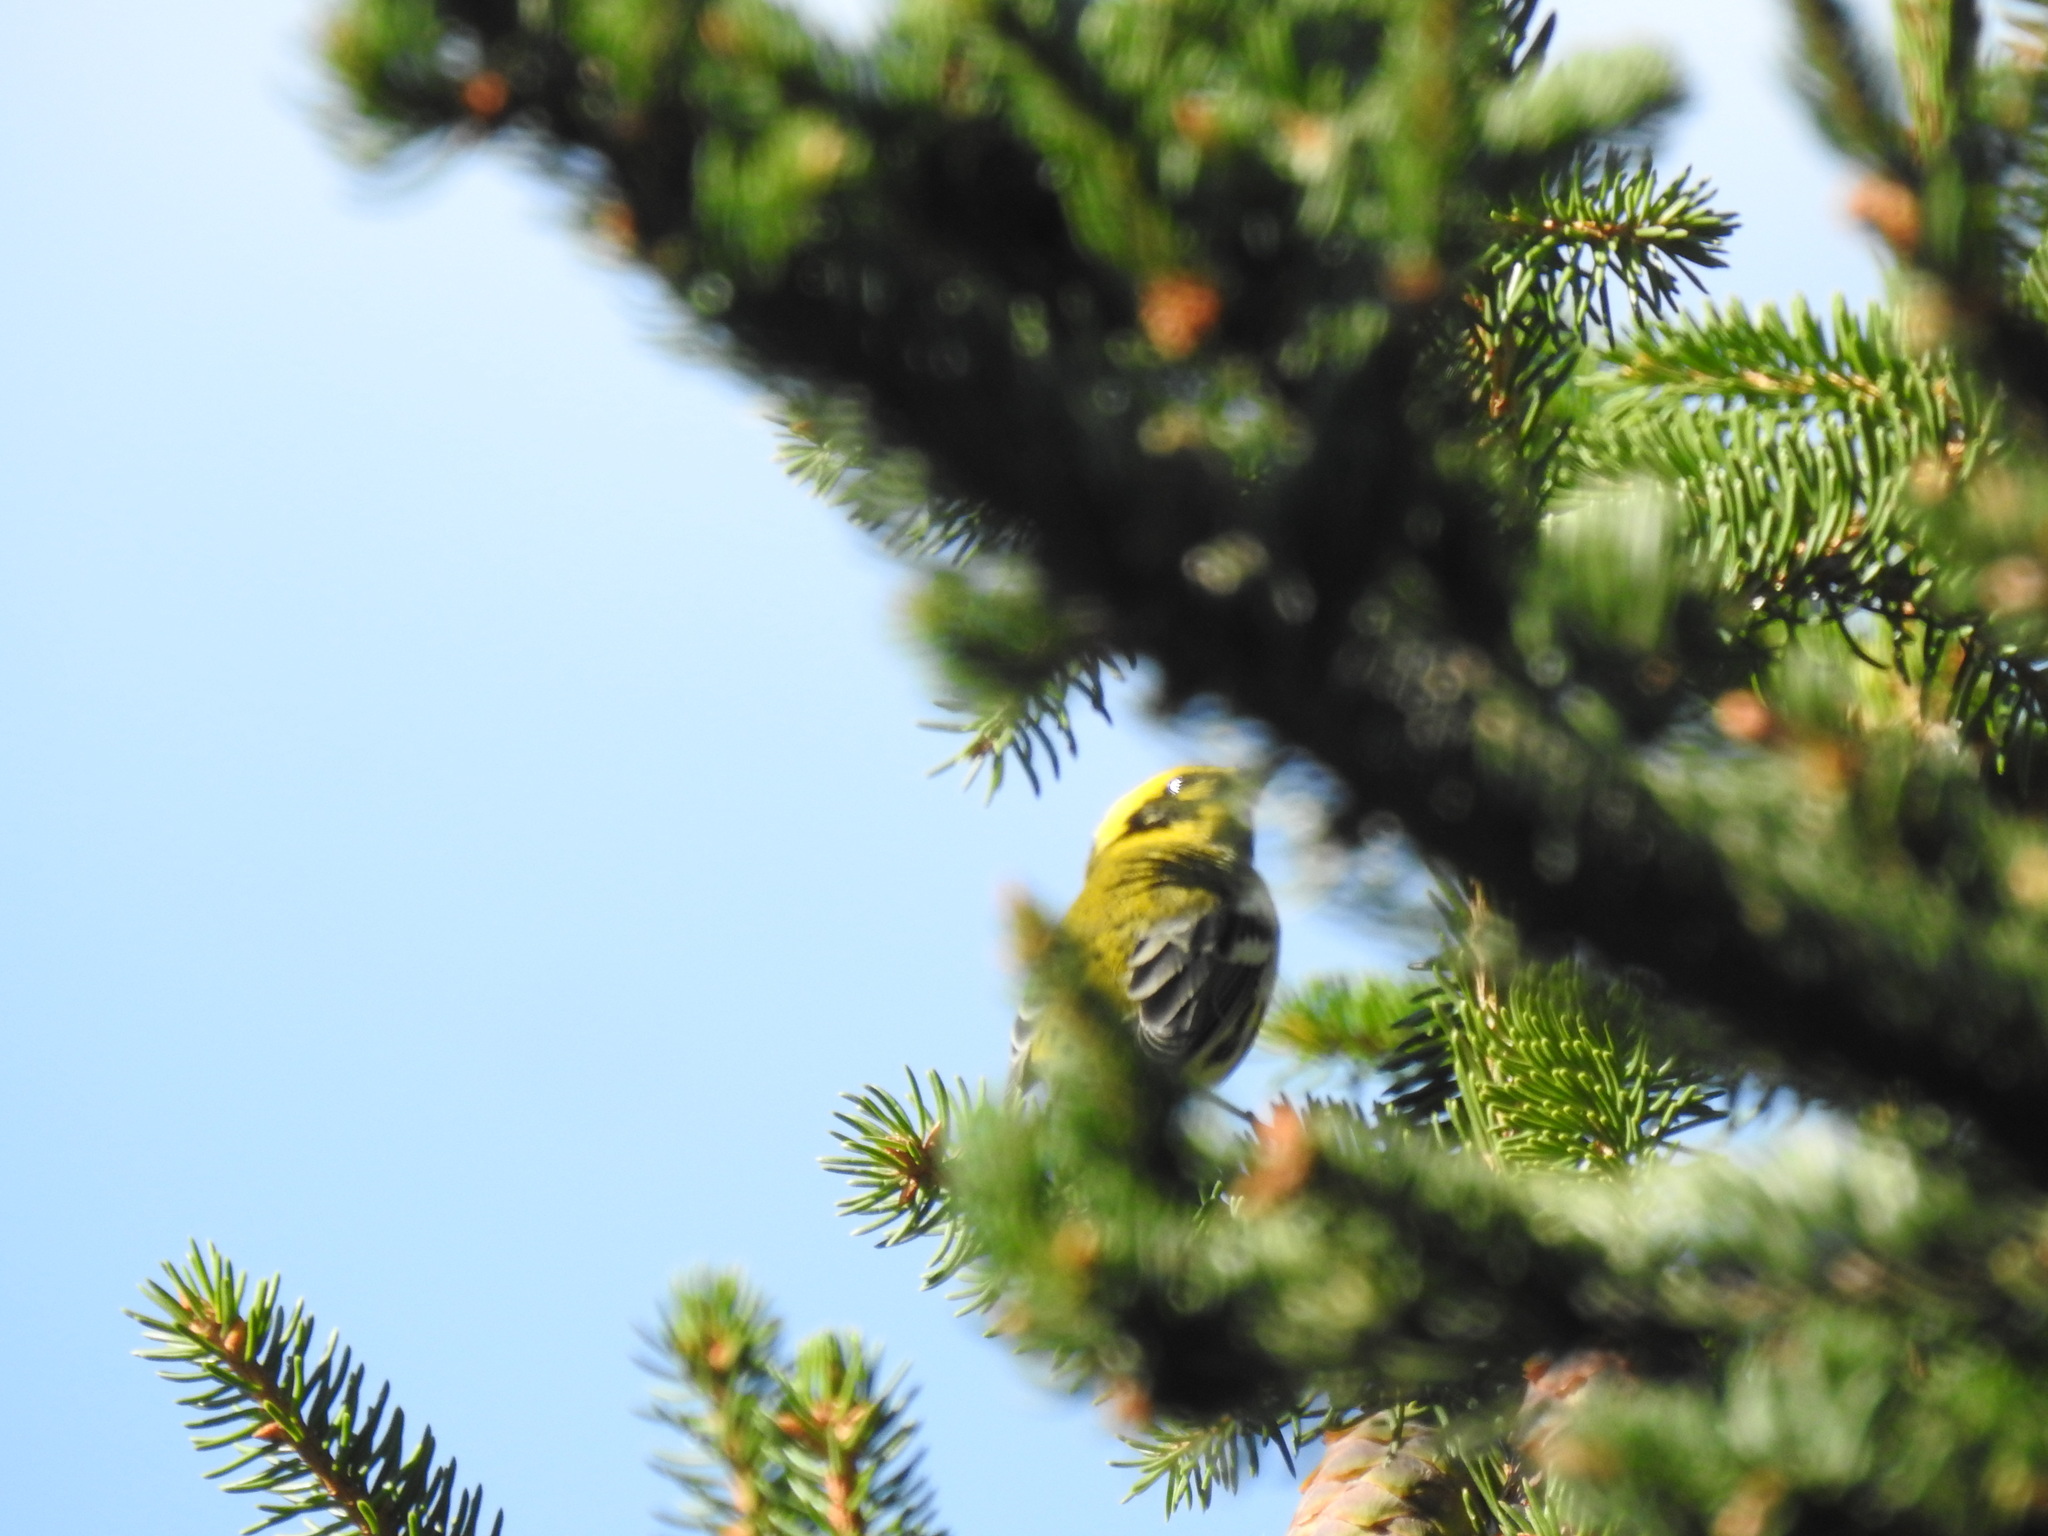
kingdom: Animalia
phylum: Chordata
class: Aves
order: Passeriformes
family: Parulidae
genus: Setophaga
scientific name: Setophaga townsendi
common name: Townsend's warbler
